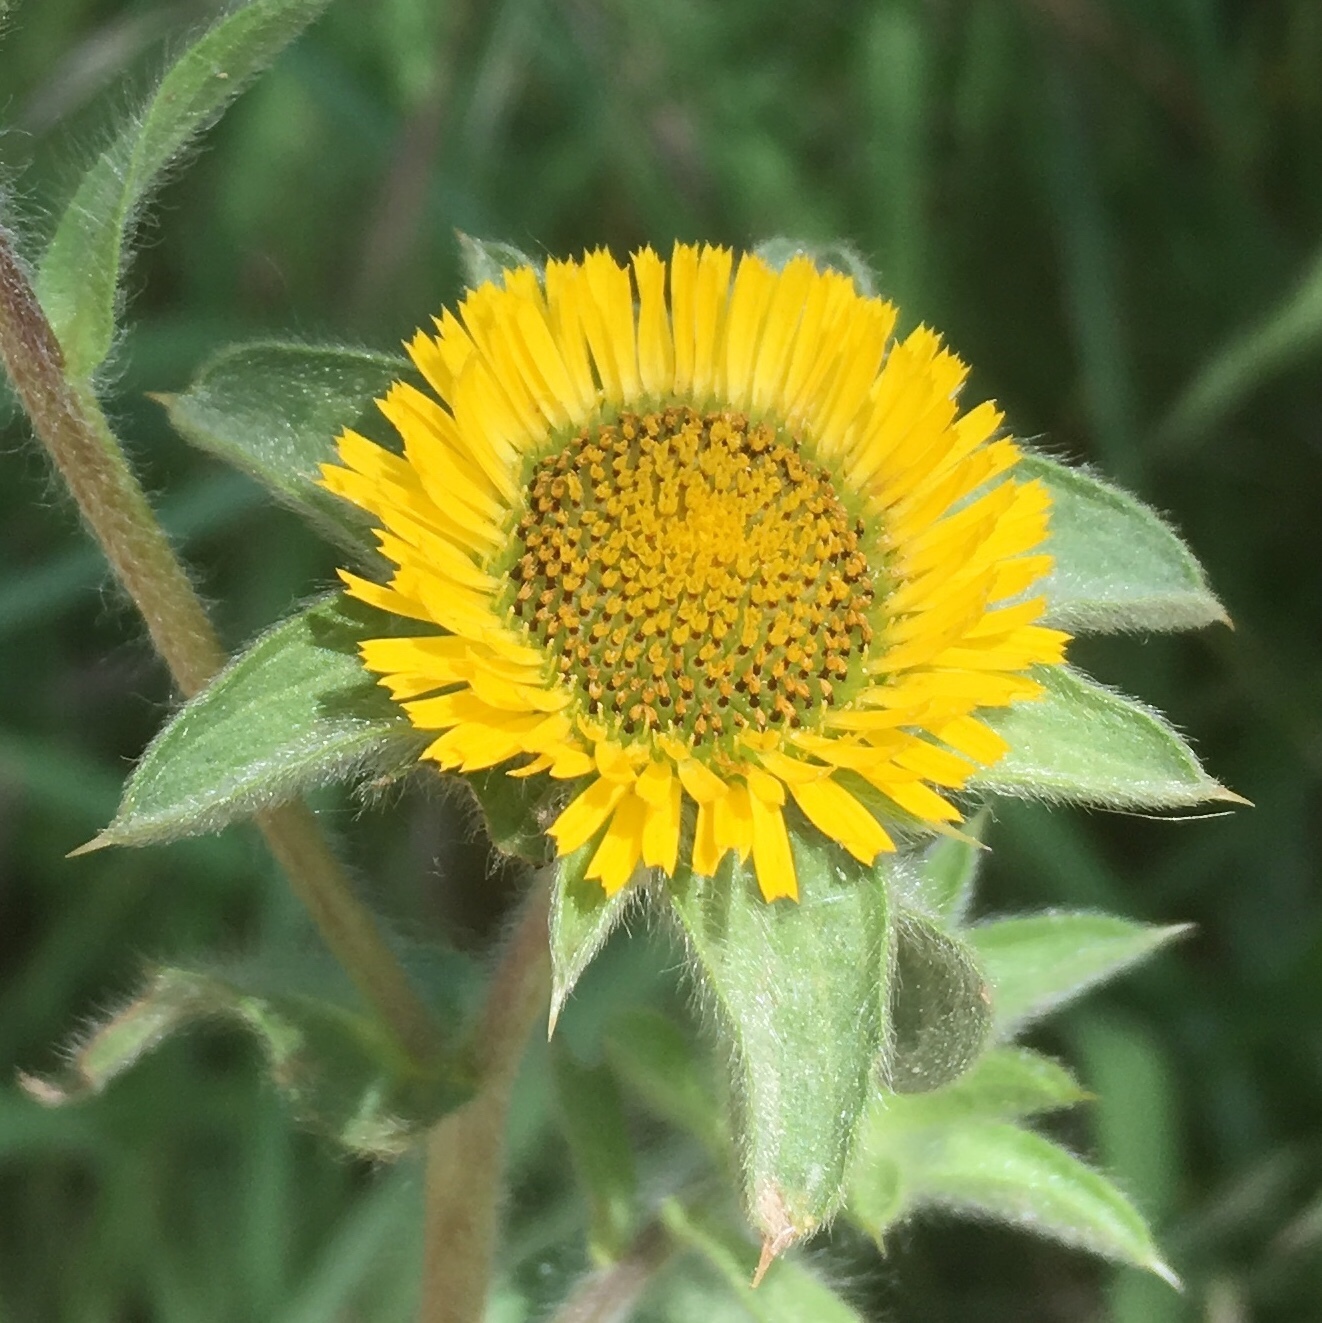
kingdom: Plantae
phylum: Tracheophyta
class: Magnoliopsida
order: Asterales
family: Asteraceae
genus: Pallenis
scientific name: Pallenis spinosa
